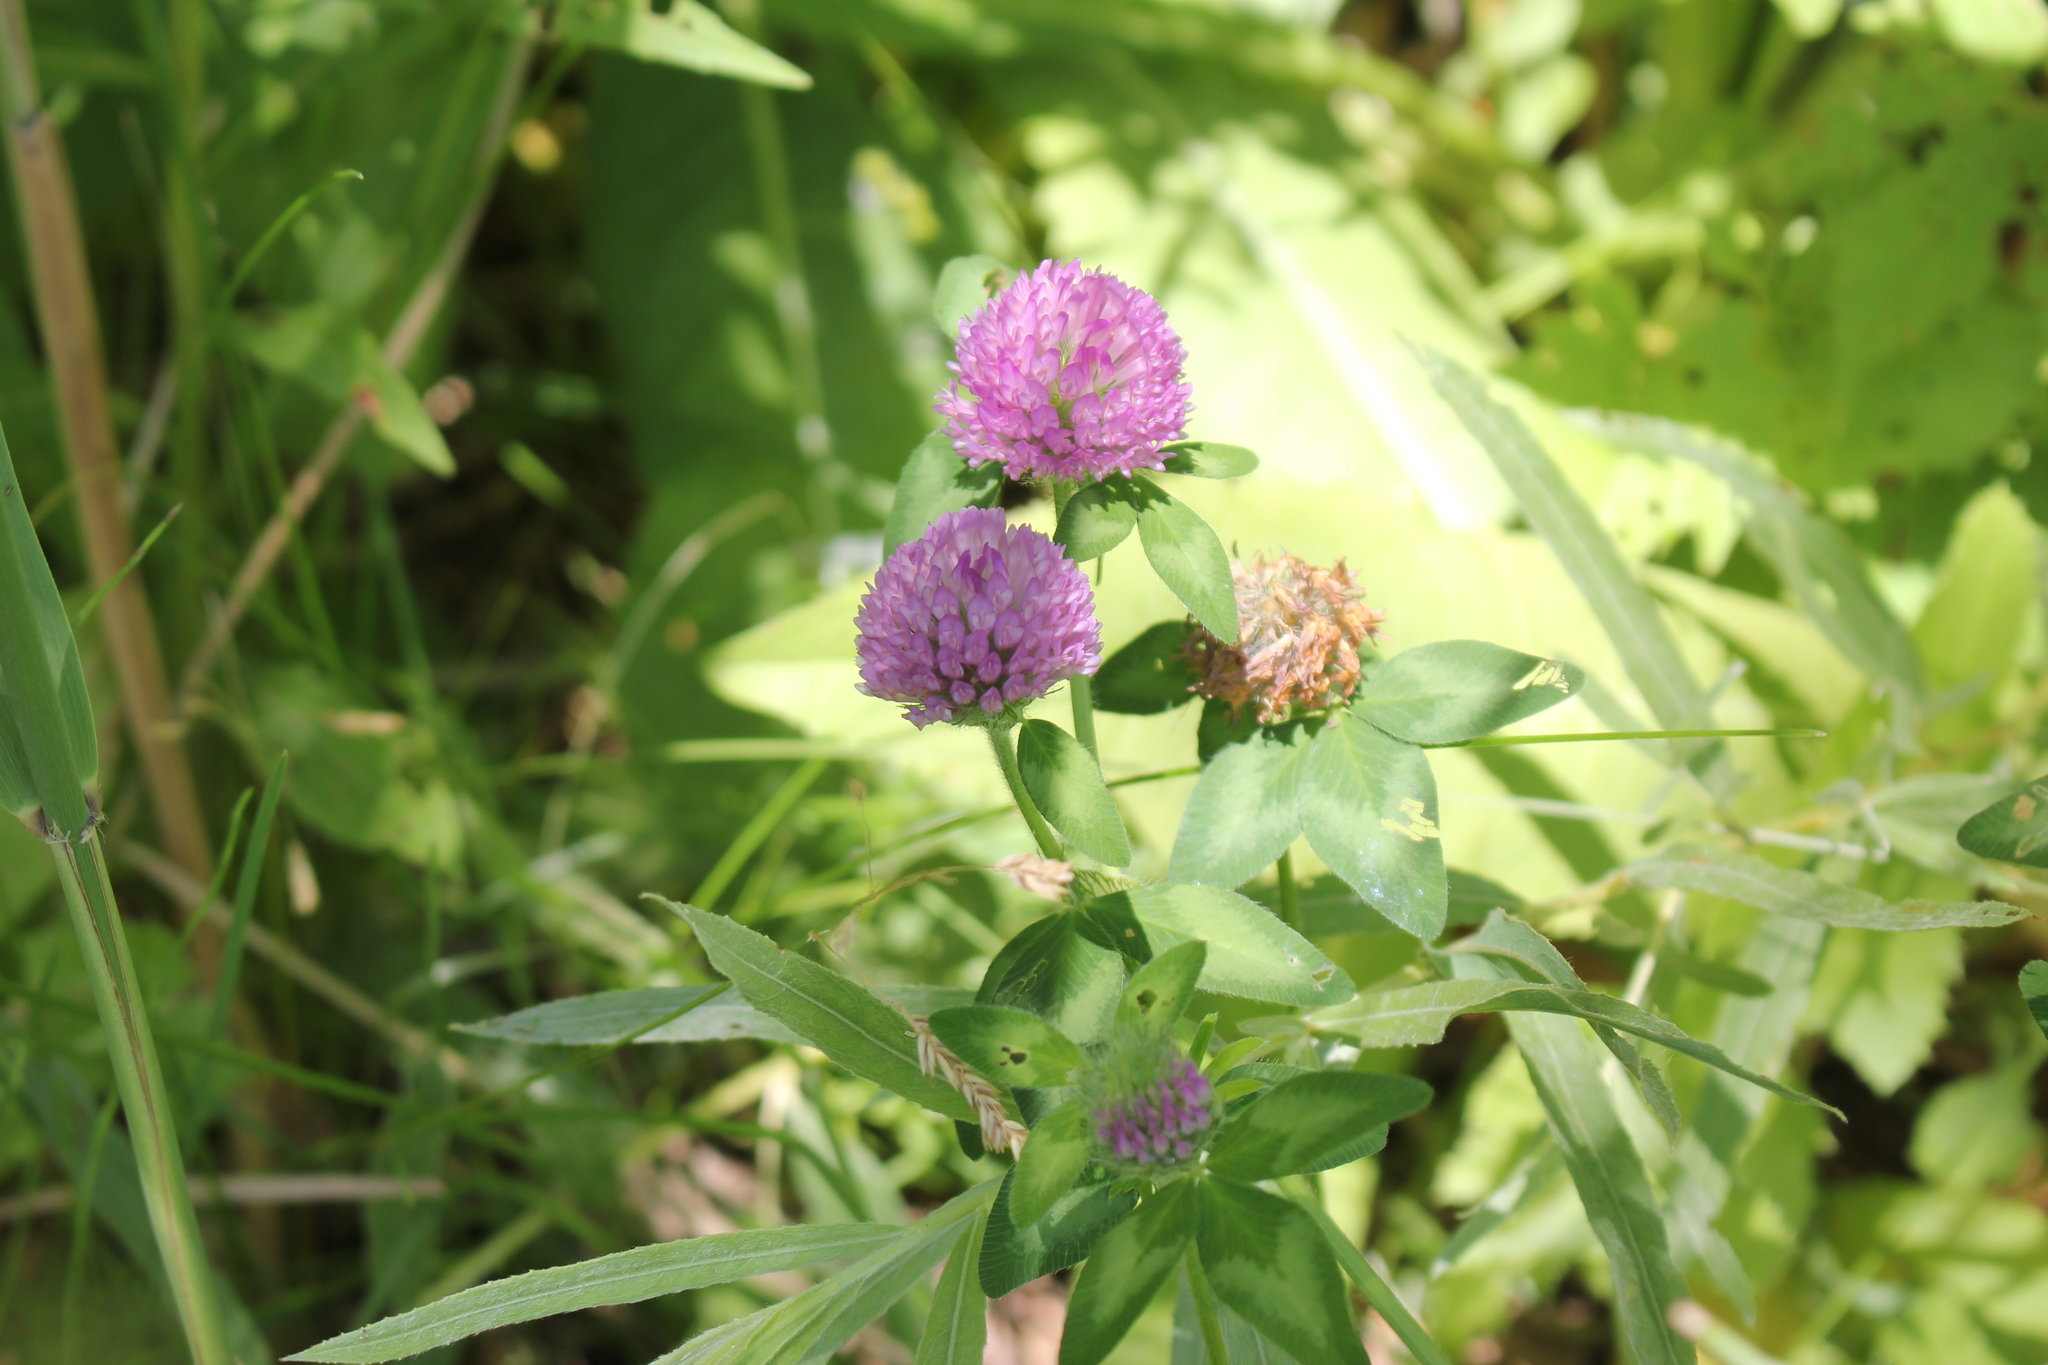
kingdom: Plantae
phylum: Tracheophyta
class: Magnoliopsida
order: Fabales
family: Fabaceae
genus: Trifolium
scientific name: Trifolium pratense
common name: Red clover
